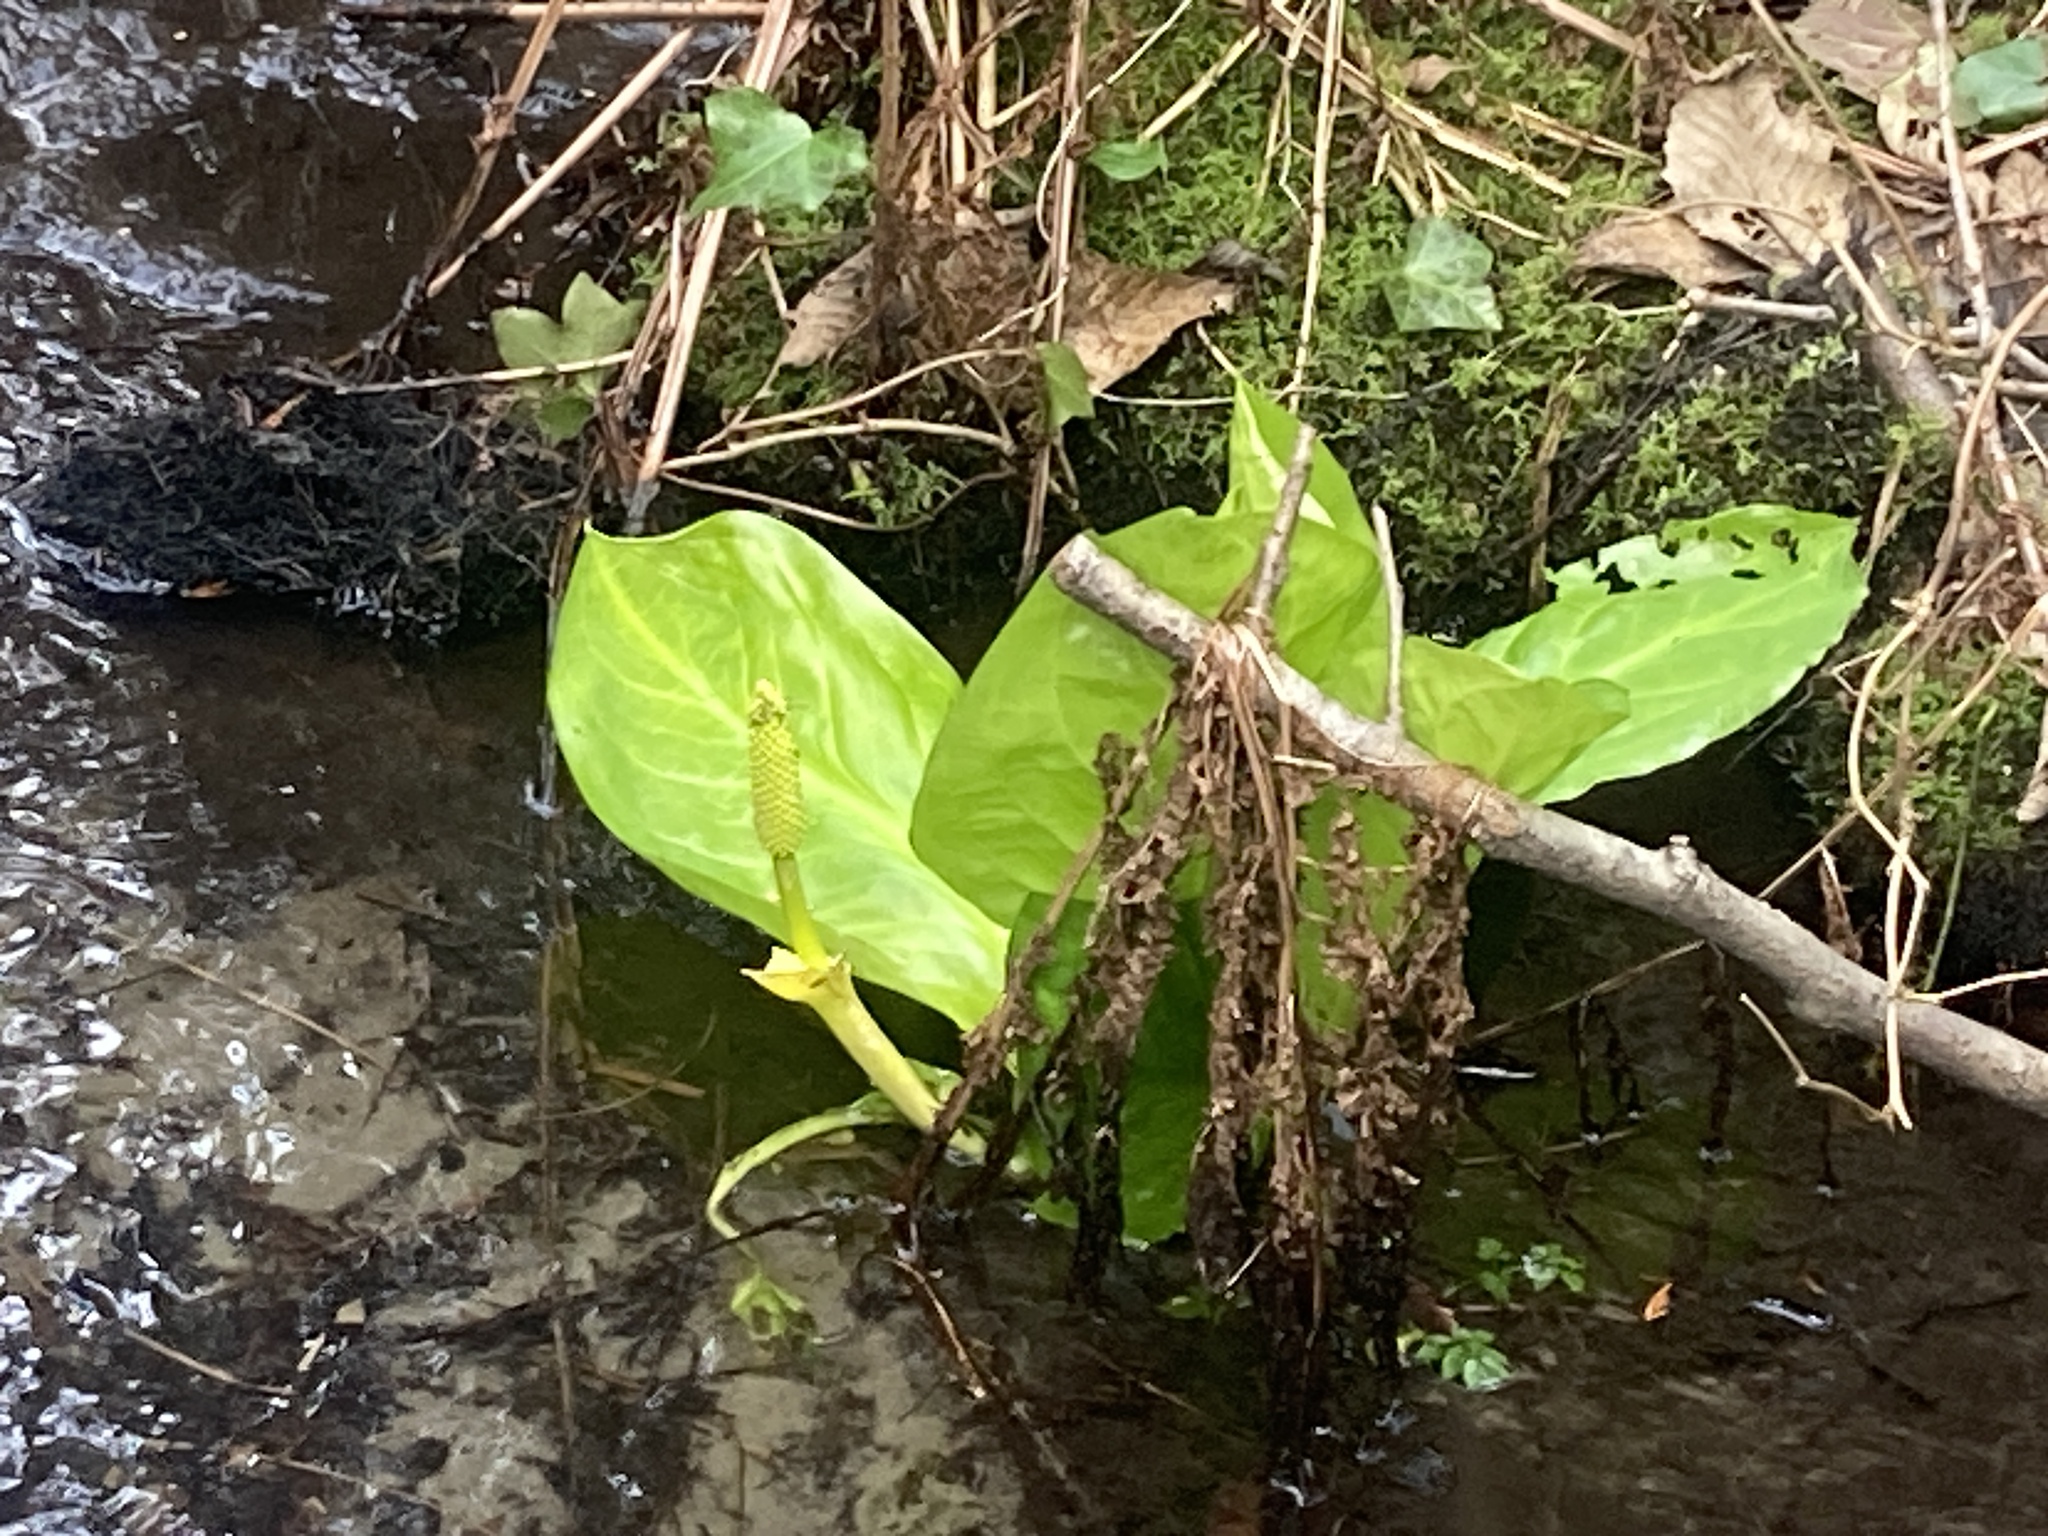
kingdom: Plantae
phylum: Tracheophyta
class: Liliopsida
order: Alismatales
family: Araceae
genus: Lysichiton
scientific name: Lysichiton americanus
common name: American skunk cabbage
